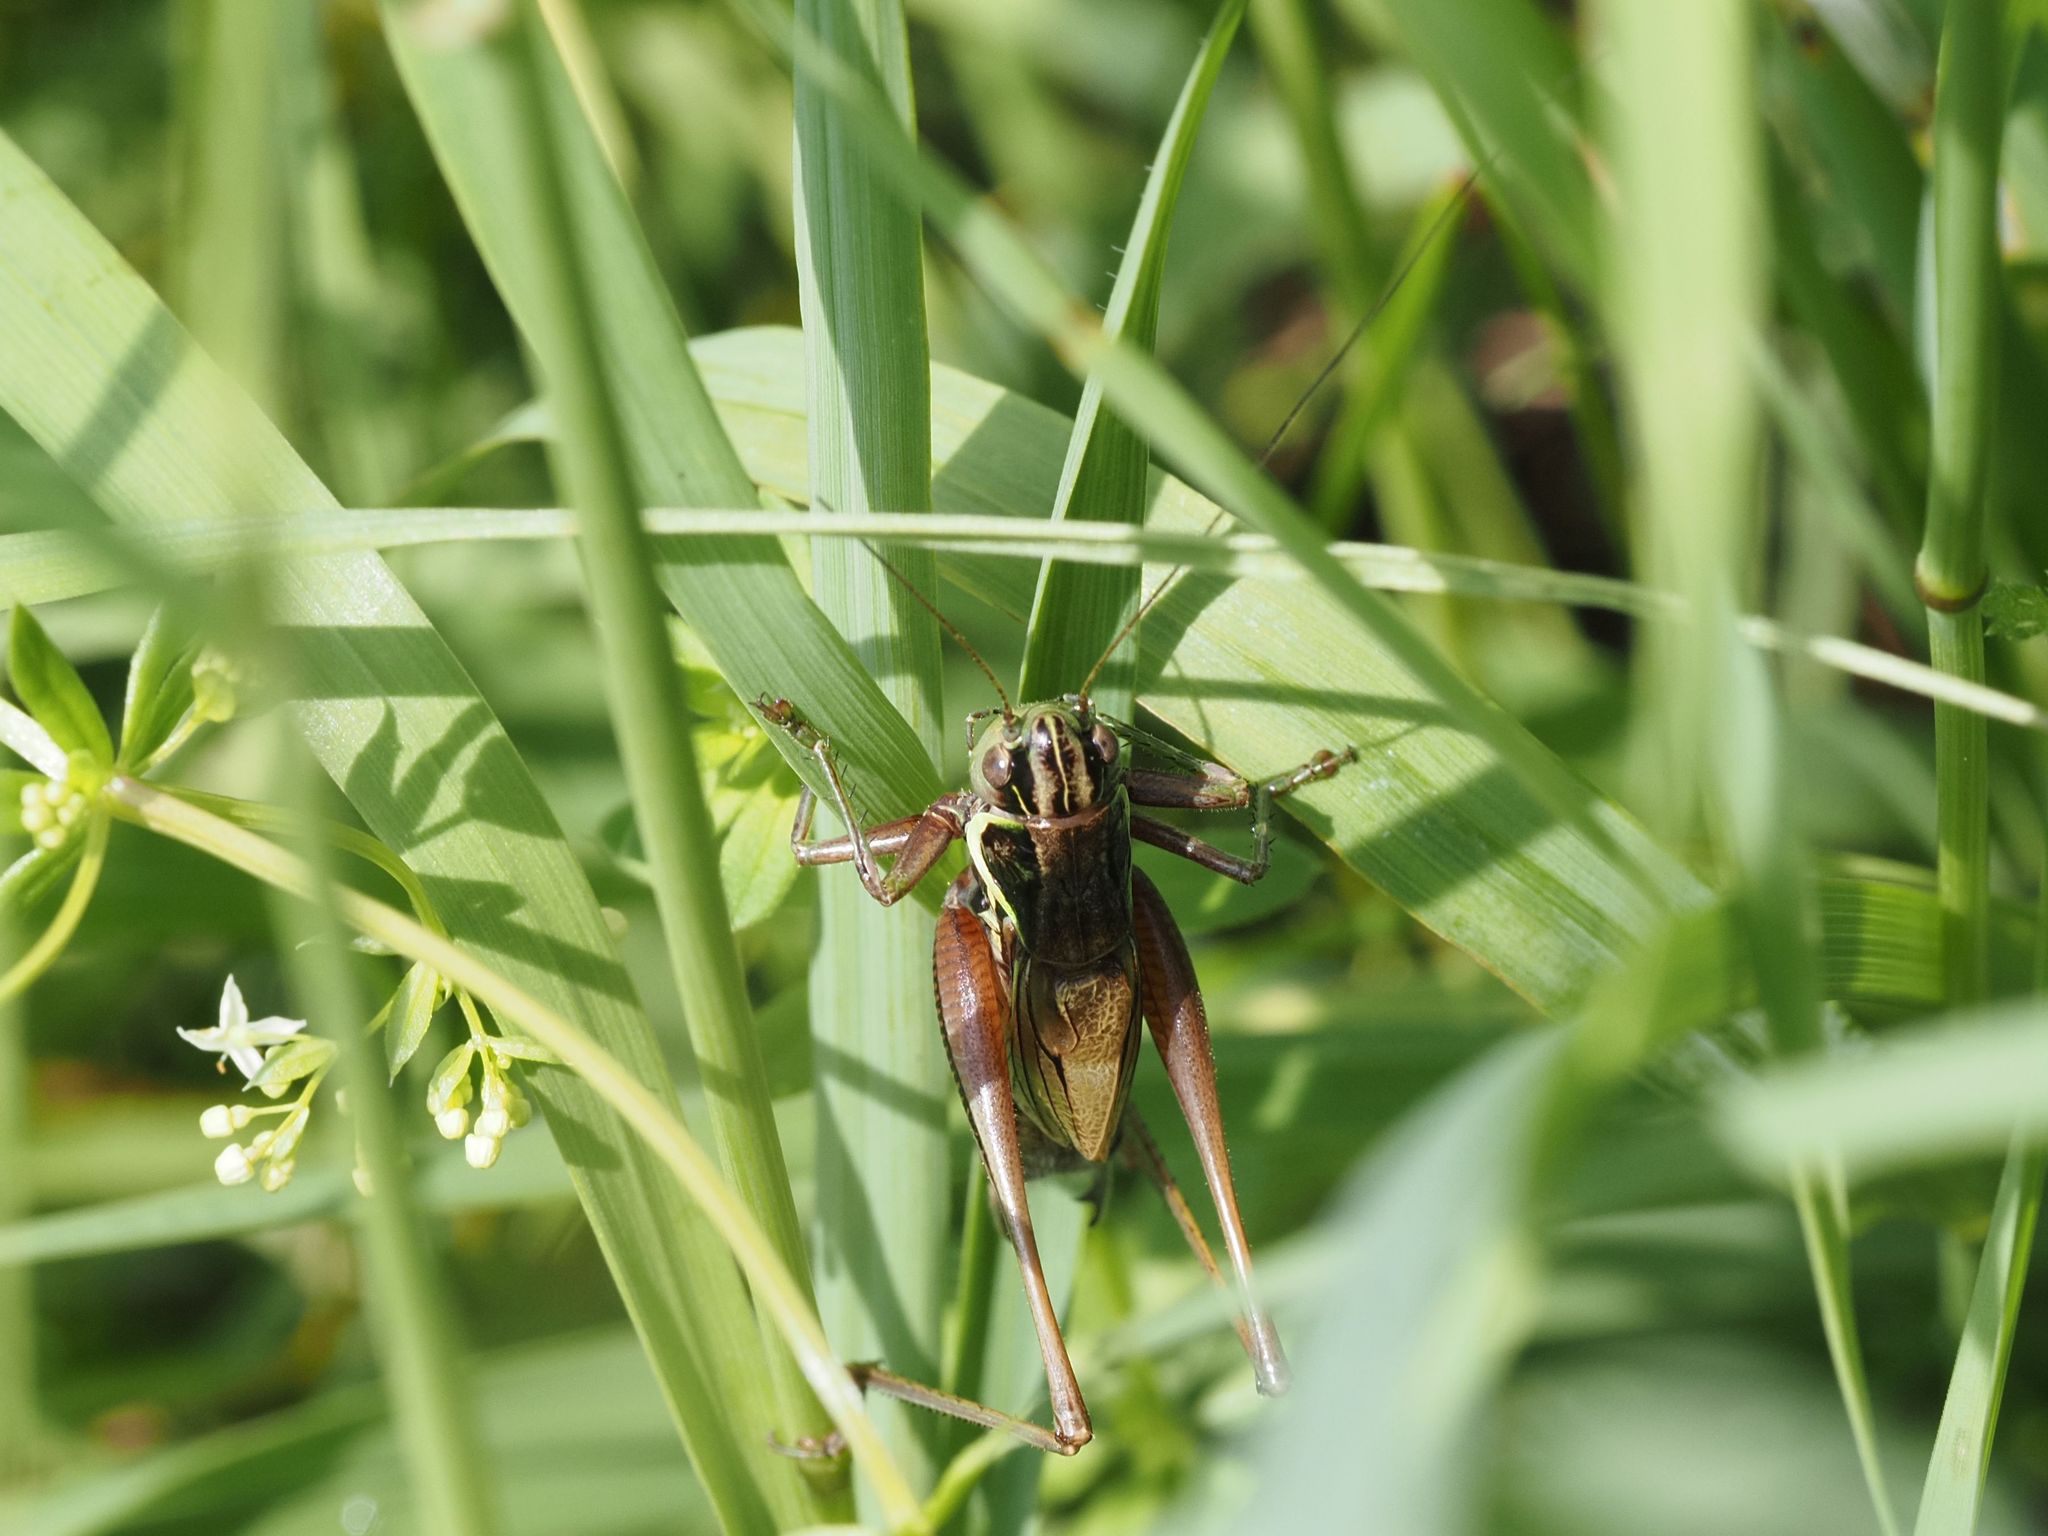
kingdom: Animalia
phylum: Arthropoda
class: Insecta
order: Orthoptera
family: Tettigoniidae
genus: Roeseliana
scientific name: Roeseliana roeselii
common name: Roesel's bush cricket
